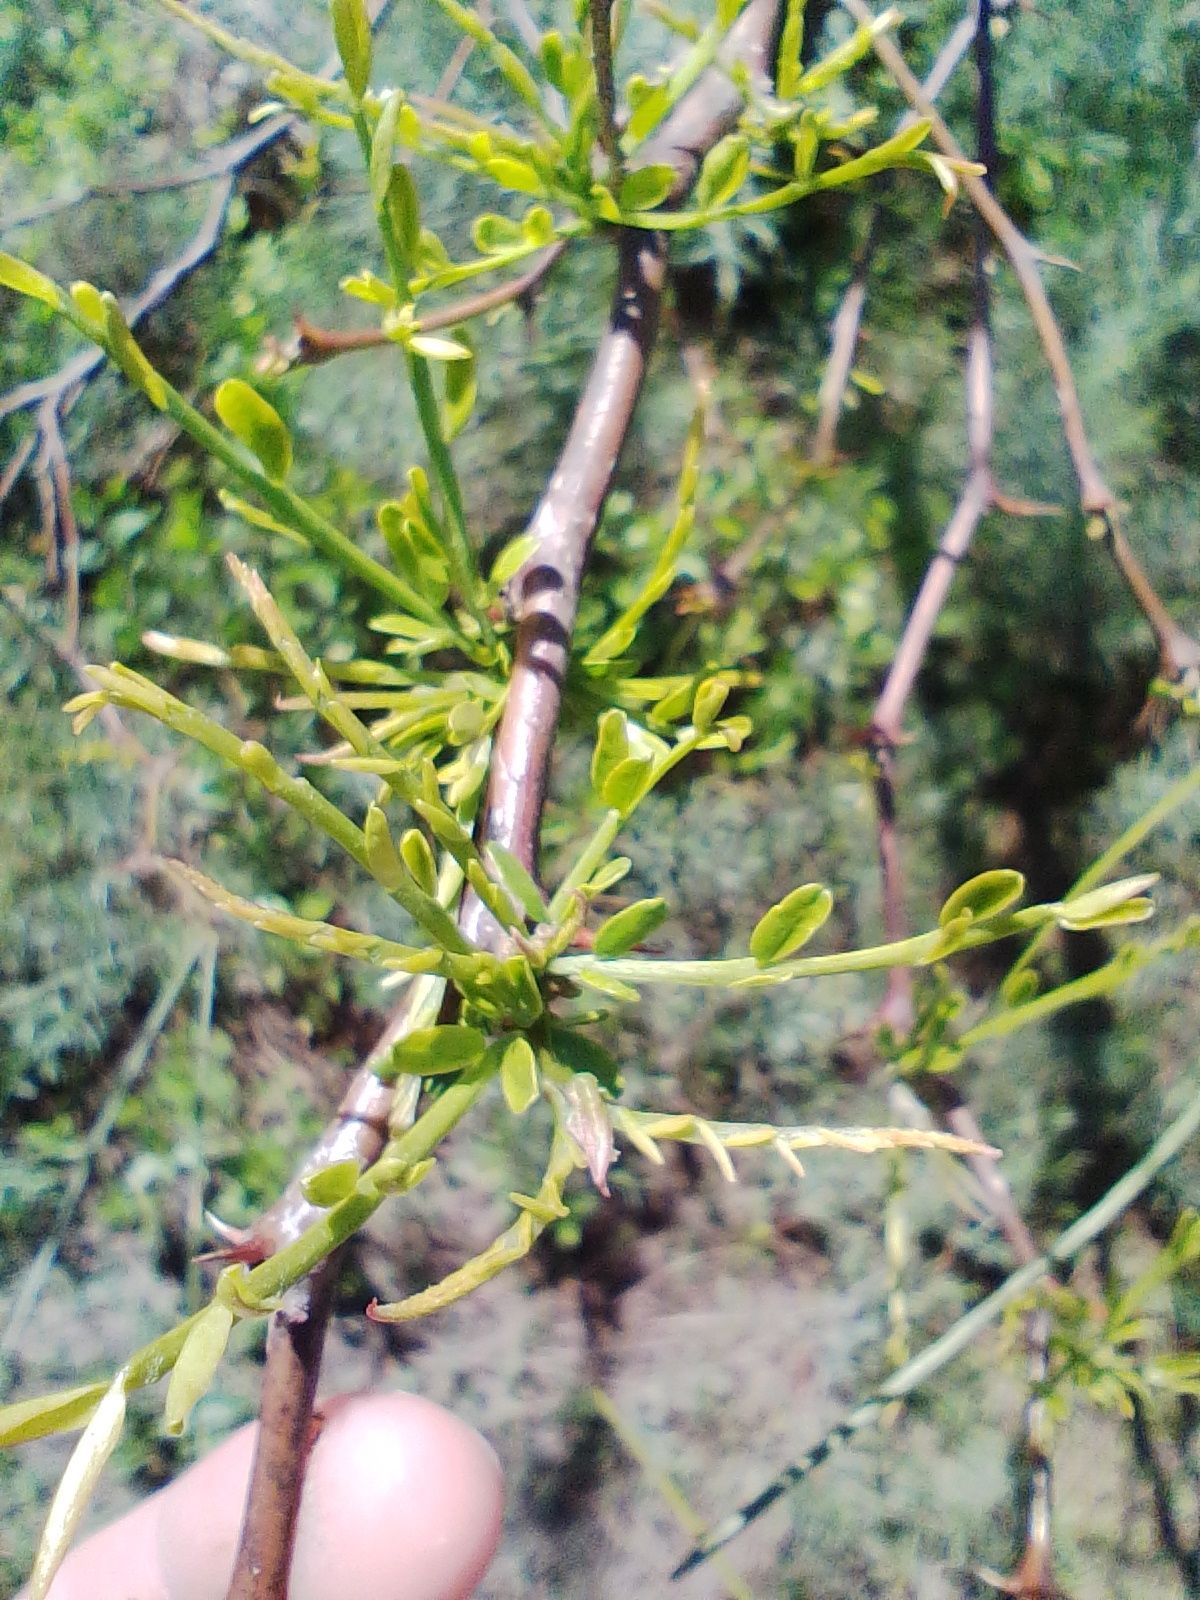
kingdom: Plantae
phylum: Tracheophyta
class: Magnoliopsida
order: Fabales
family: Fabaceae
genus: Parkinsonia
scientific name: Parkinsonia aculeata
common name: Jerusalem thorn
